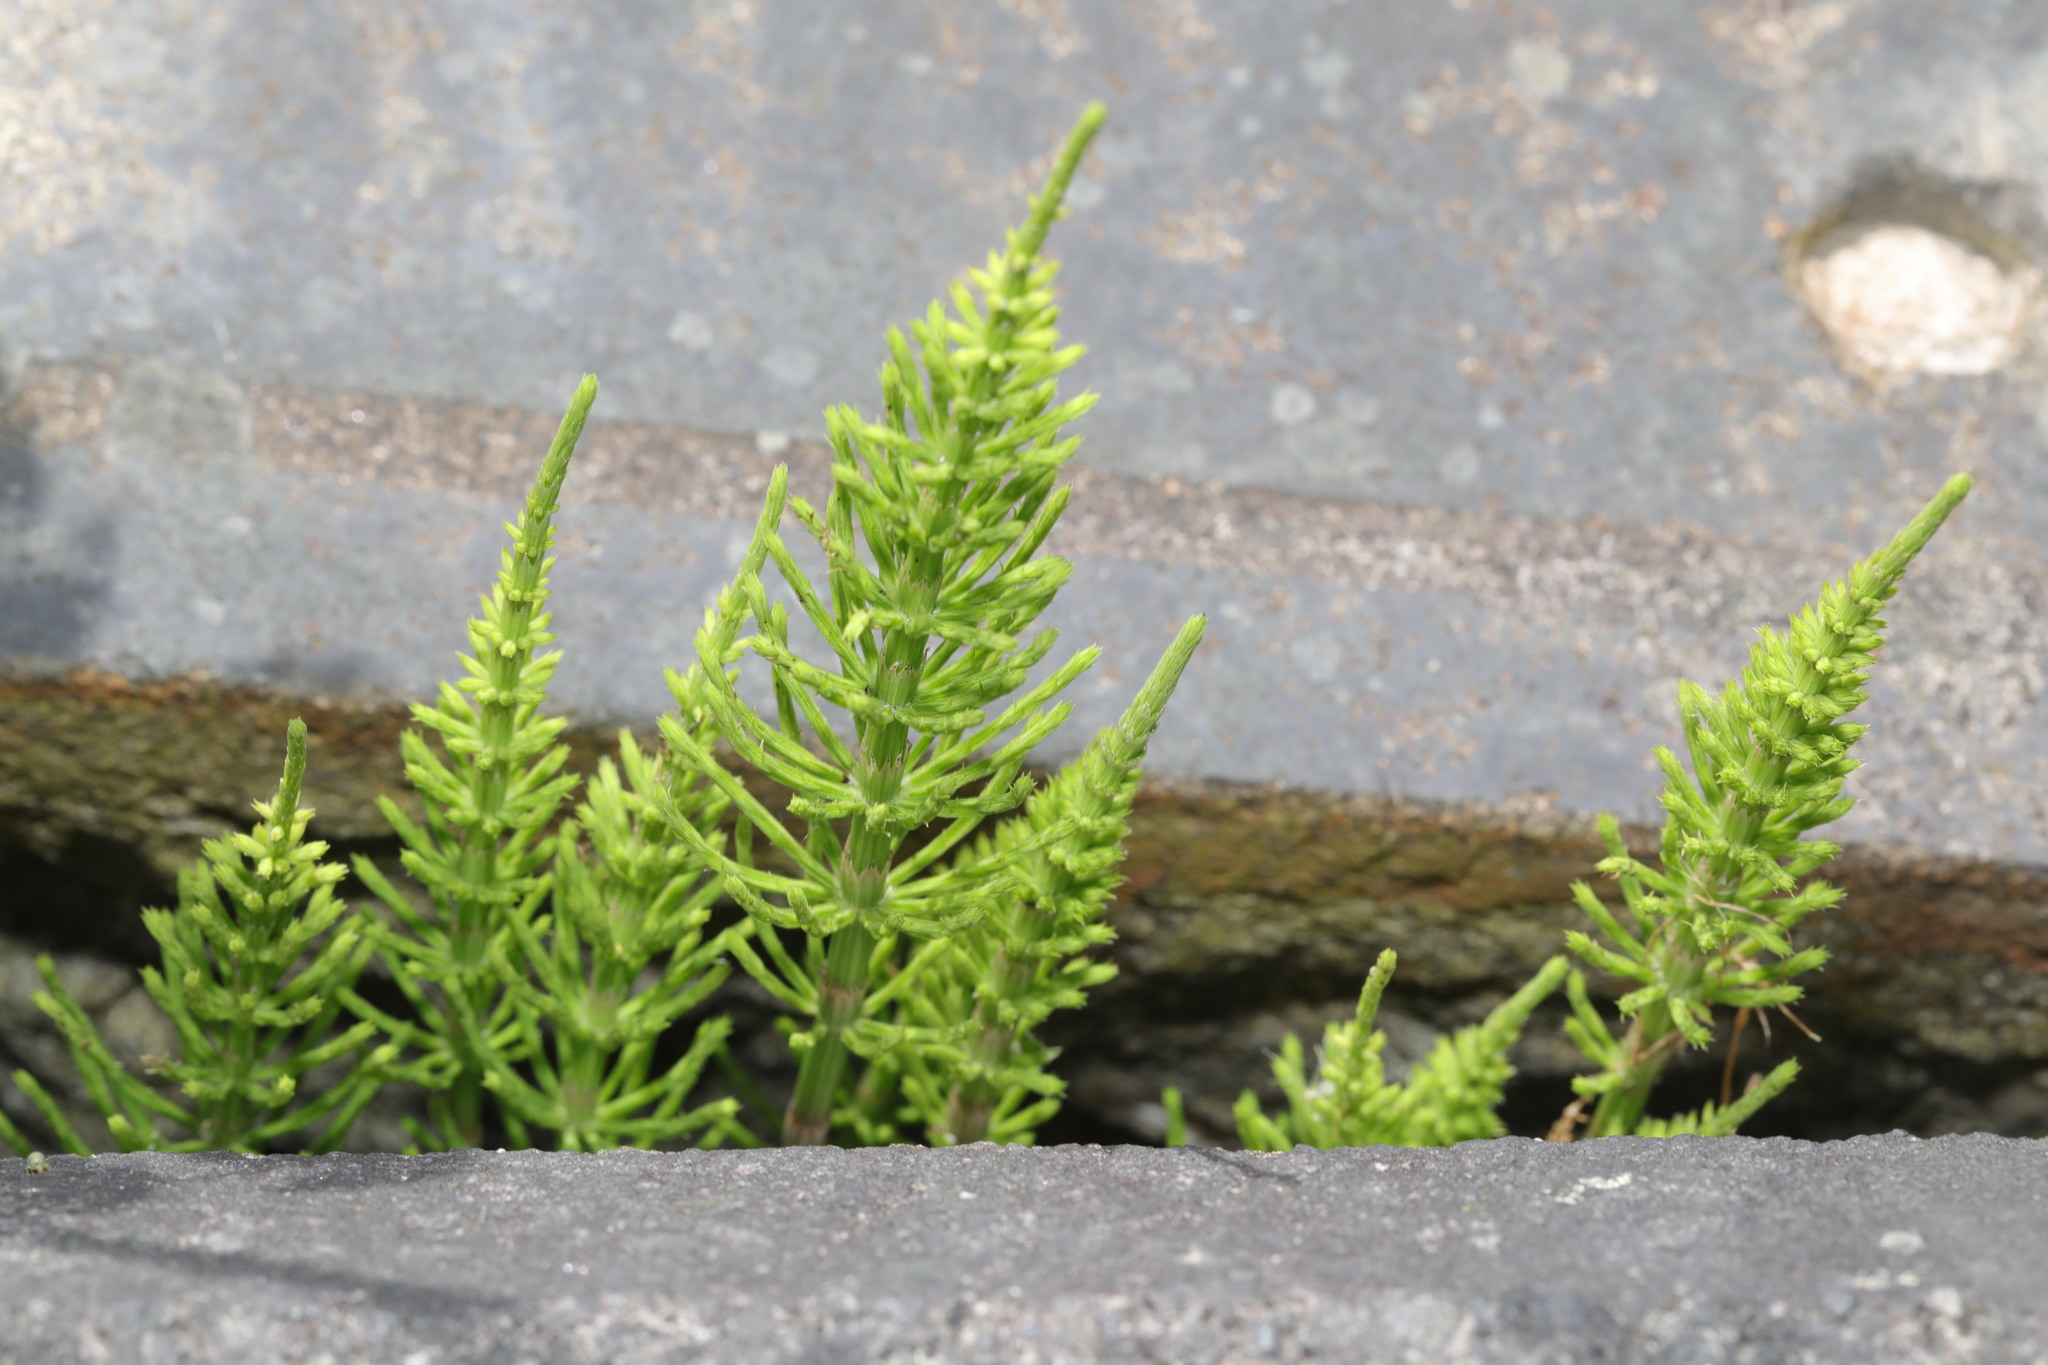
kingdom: Plantae
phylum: Tracheophyta
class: Polypodiopsida
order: Equisetales
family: Equisetaceae
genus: Equisetum
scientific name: Equisetum arvense
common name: Field horsetail
